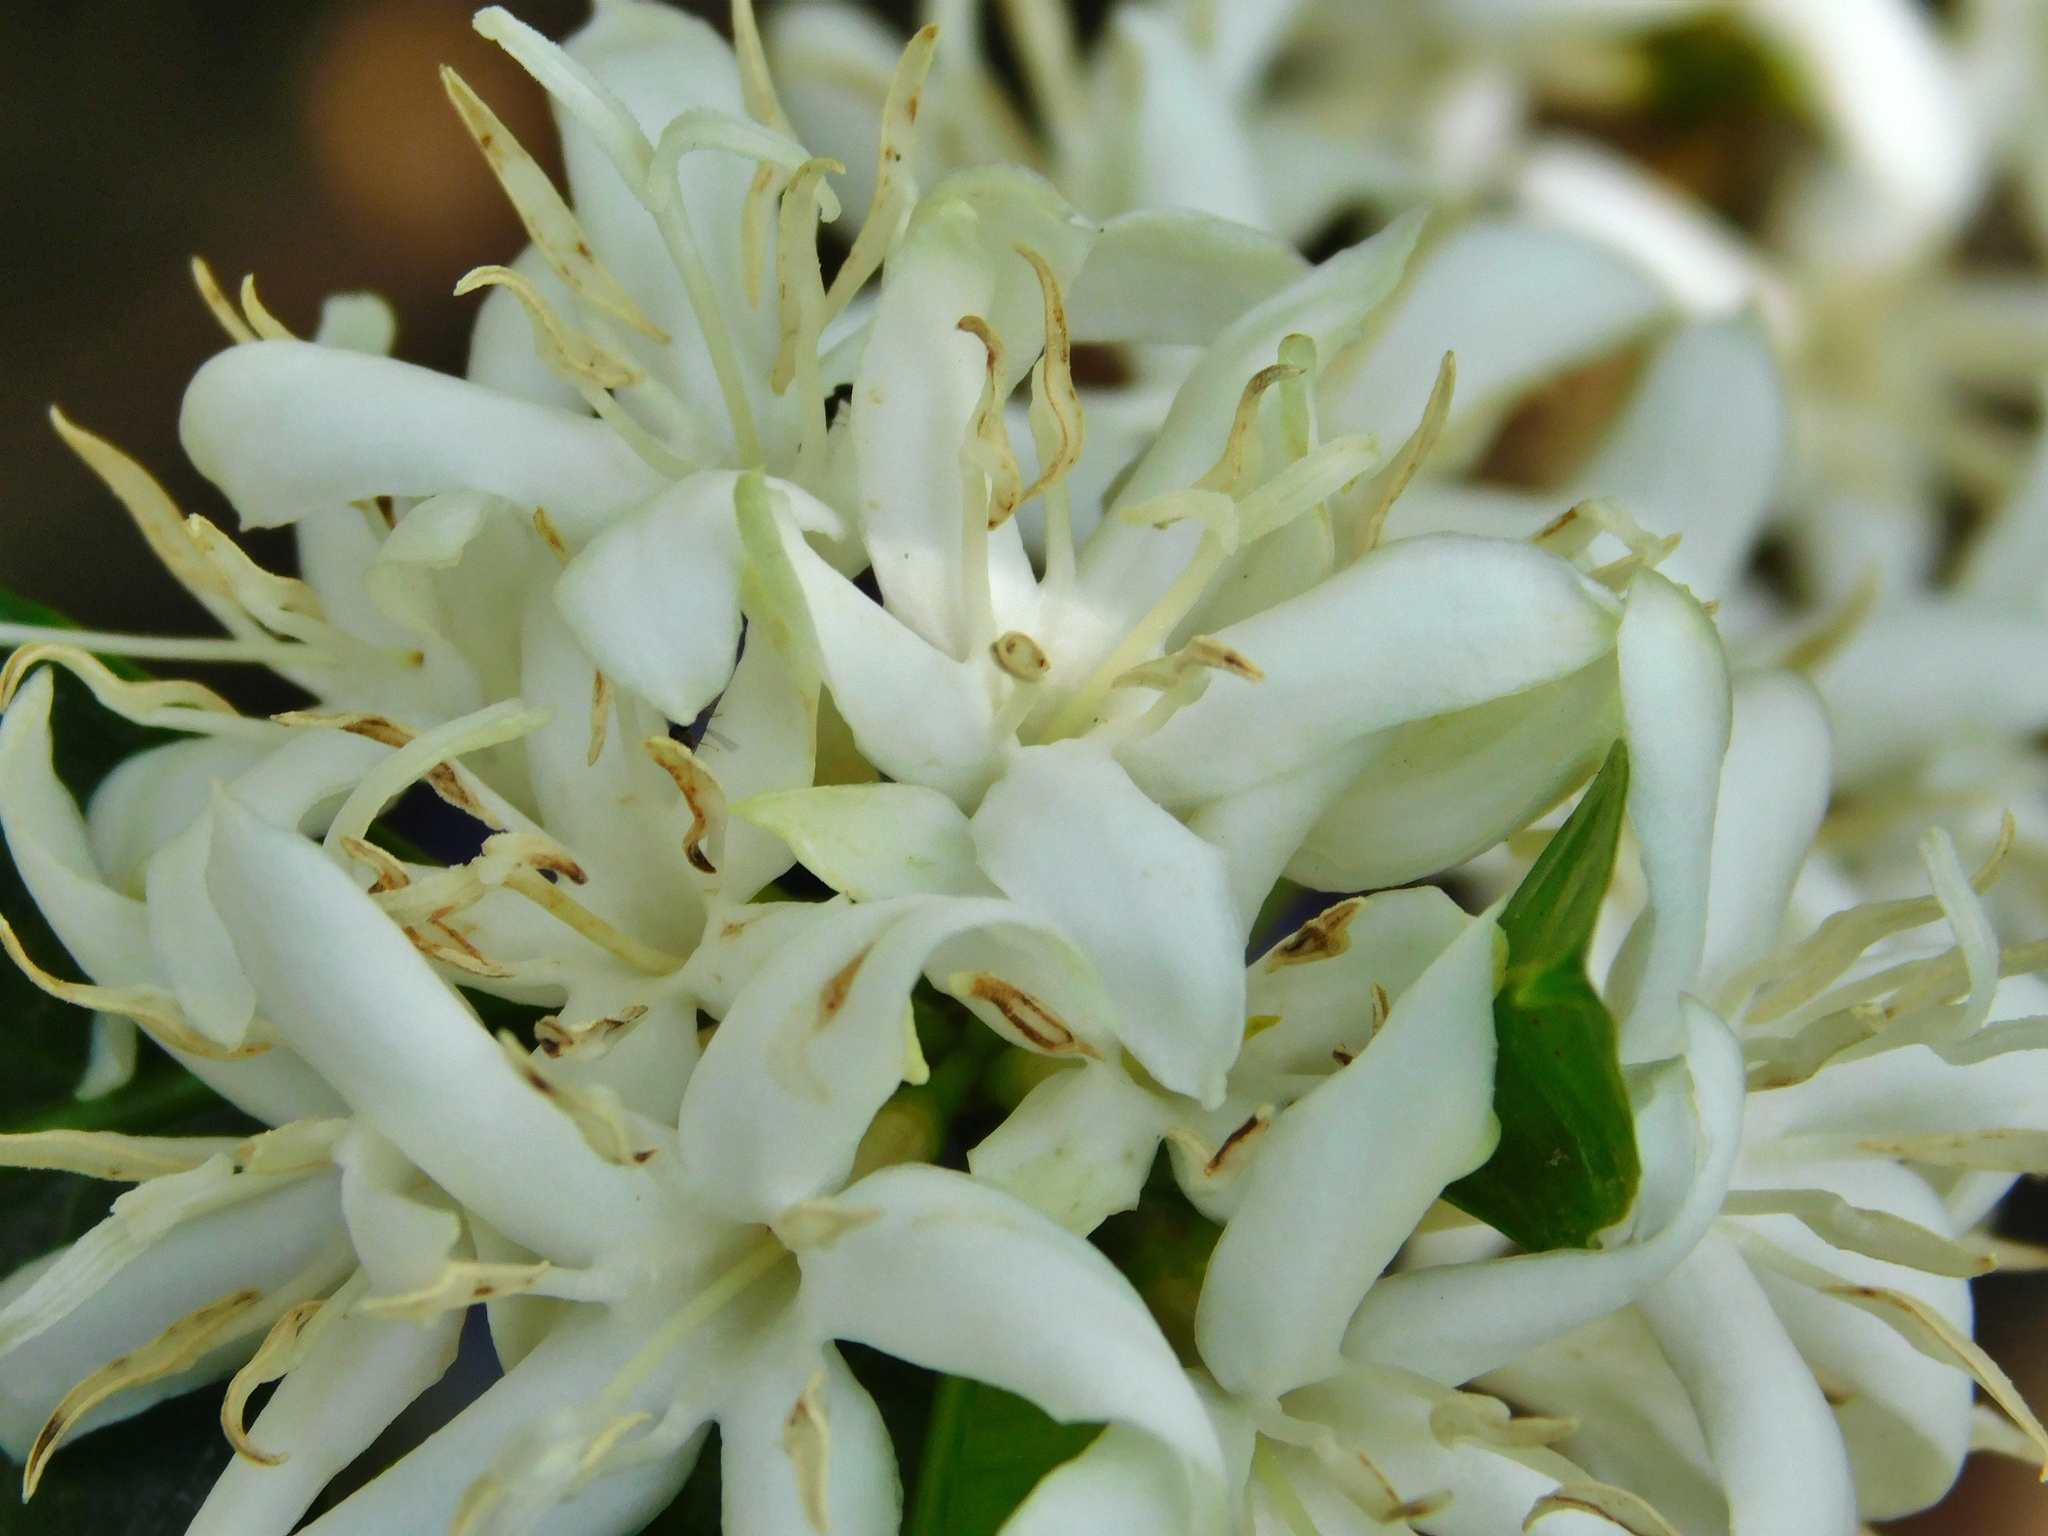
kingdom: Plantae
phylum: Tracheophyta
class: Magnoliopsida
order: Gentianales
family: Rubiaceae
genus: Coffea
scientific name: Coffea arabica
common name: Coffee
